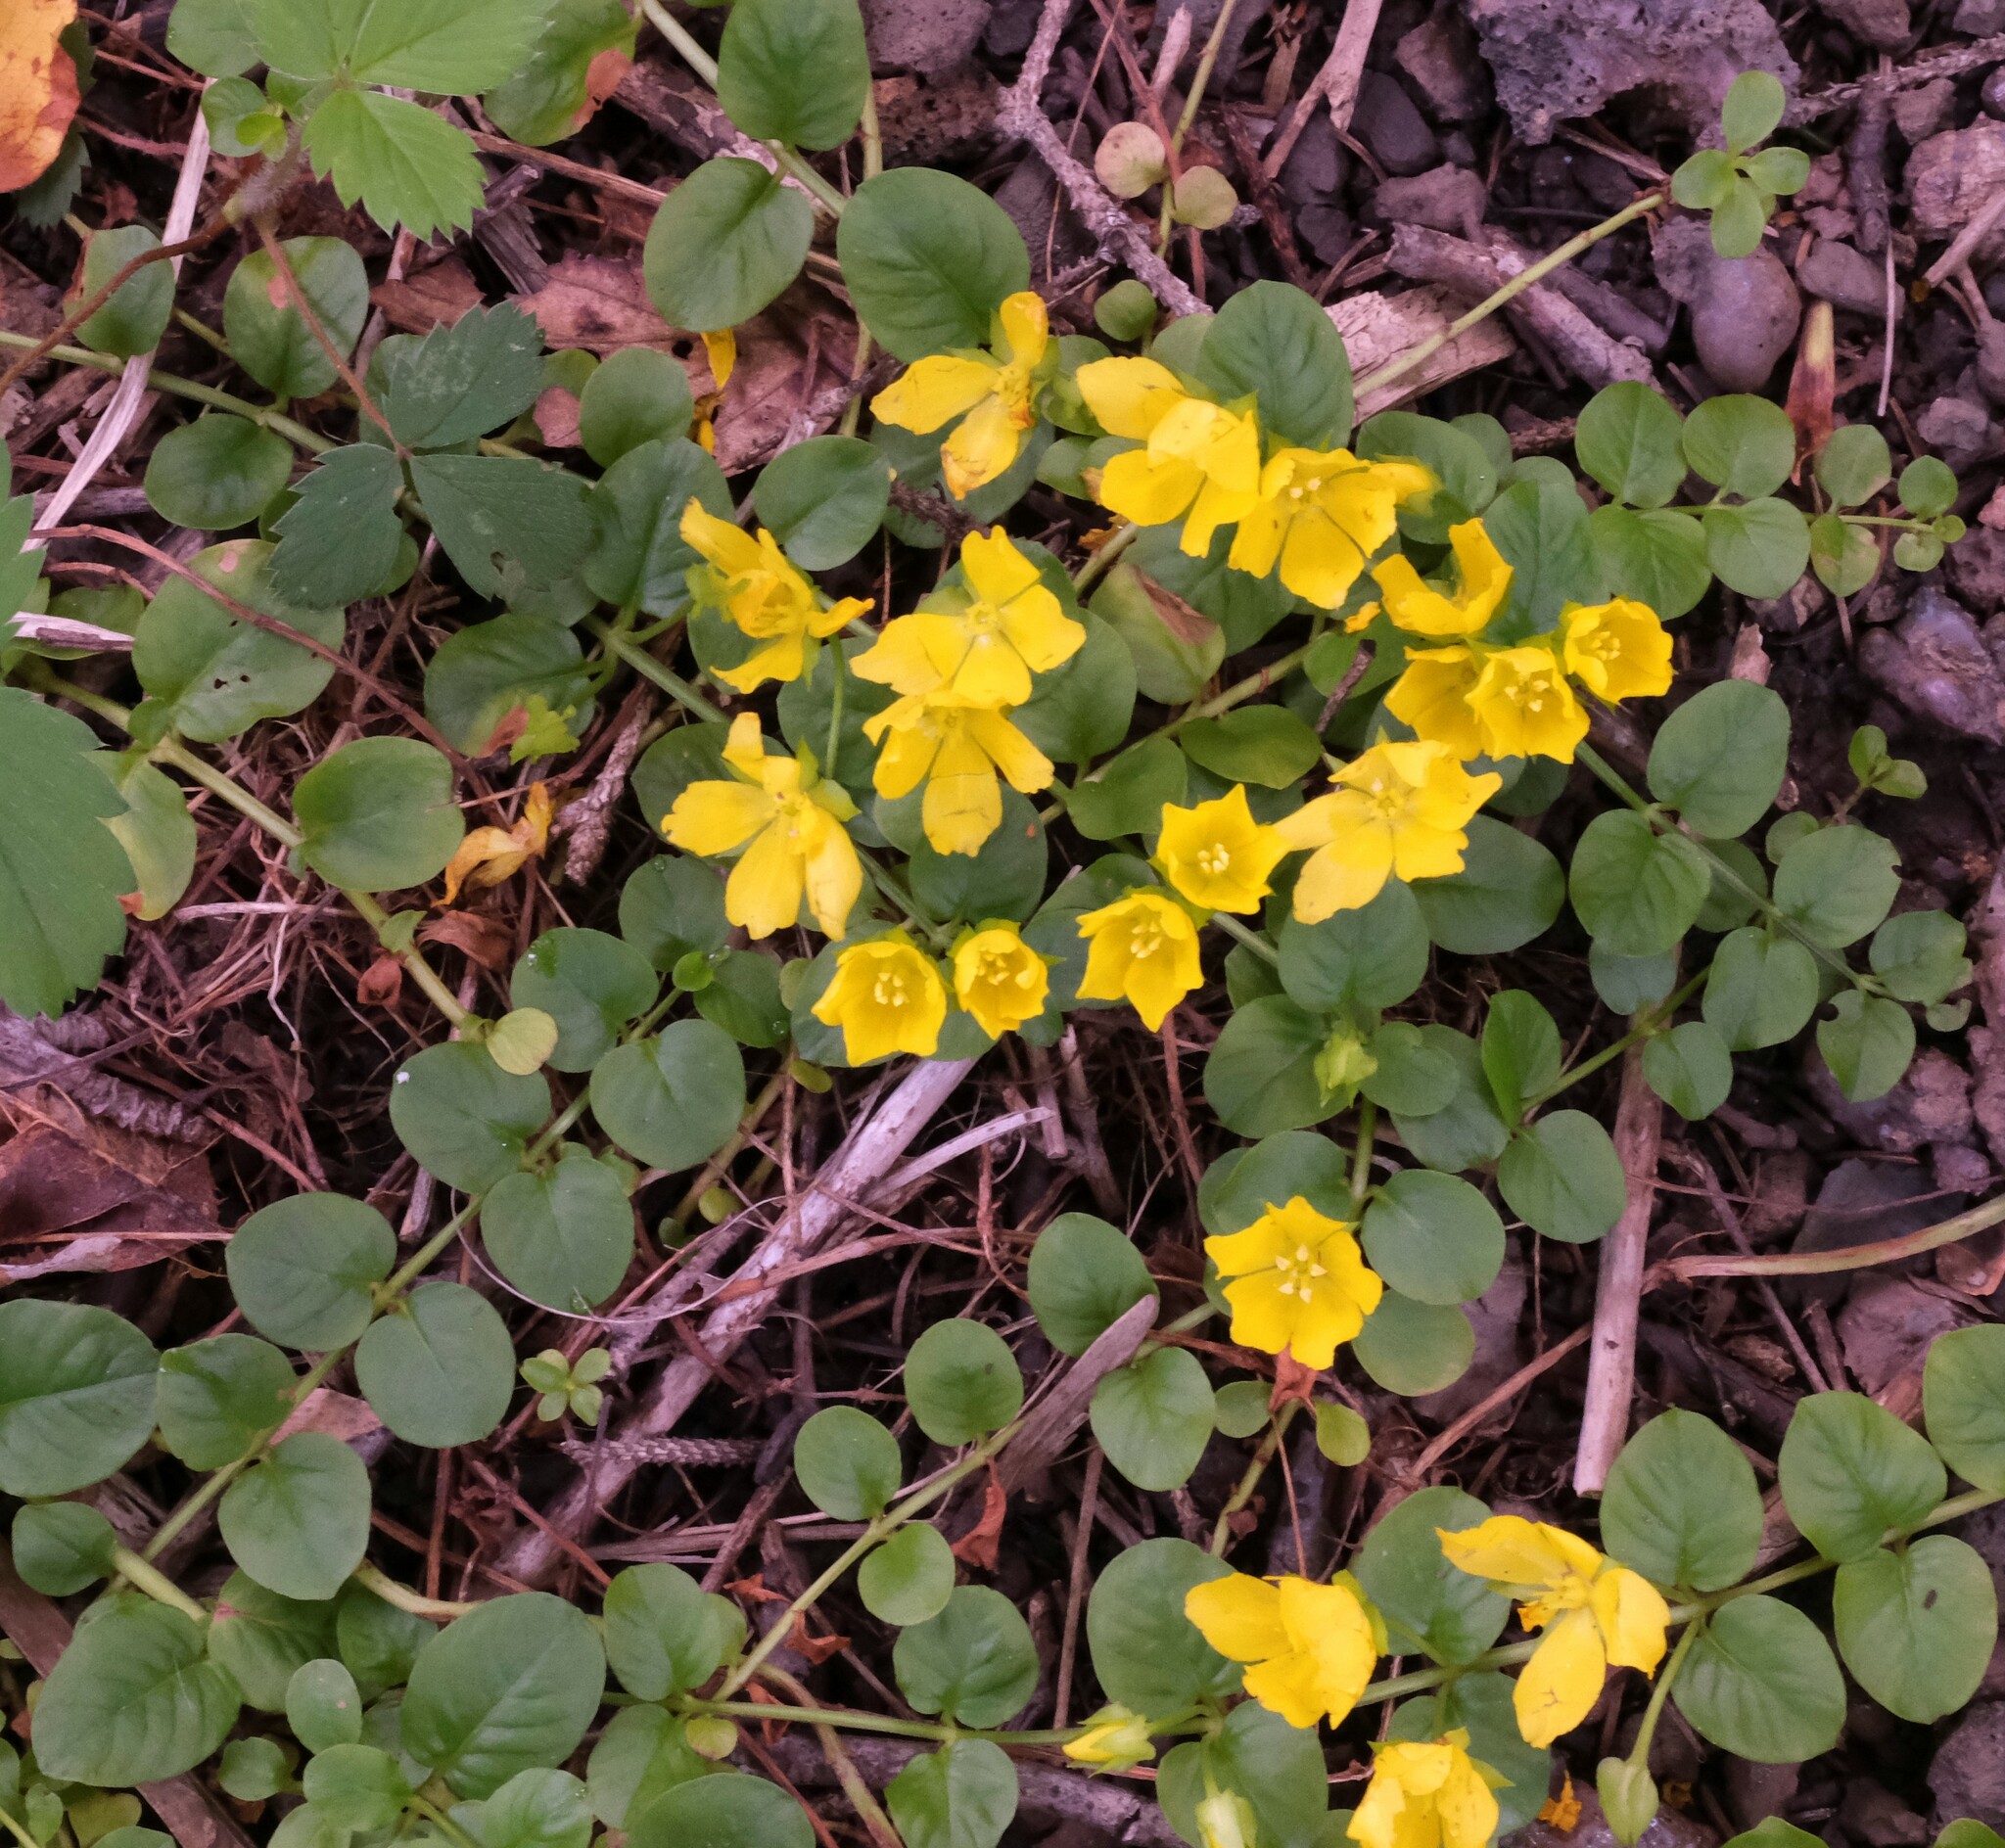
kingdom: Plantae
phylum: Tracheophyta
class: Magnoliopsida
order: Ericales
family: Primulaceae
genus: Lysimachia
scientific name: Lysimachia nummularia
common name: Moneywort
